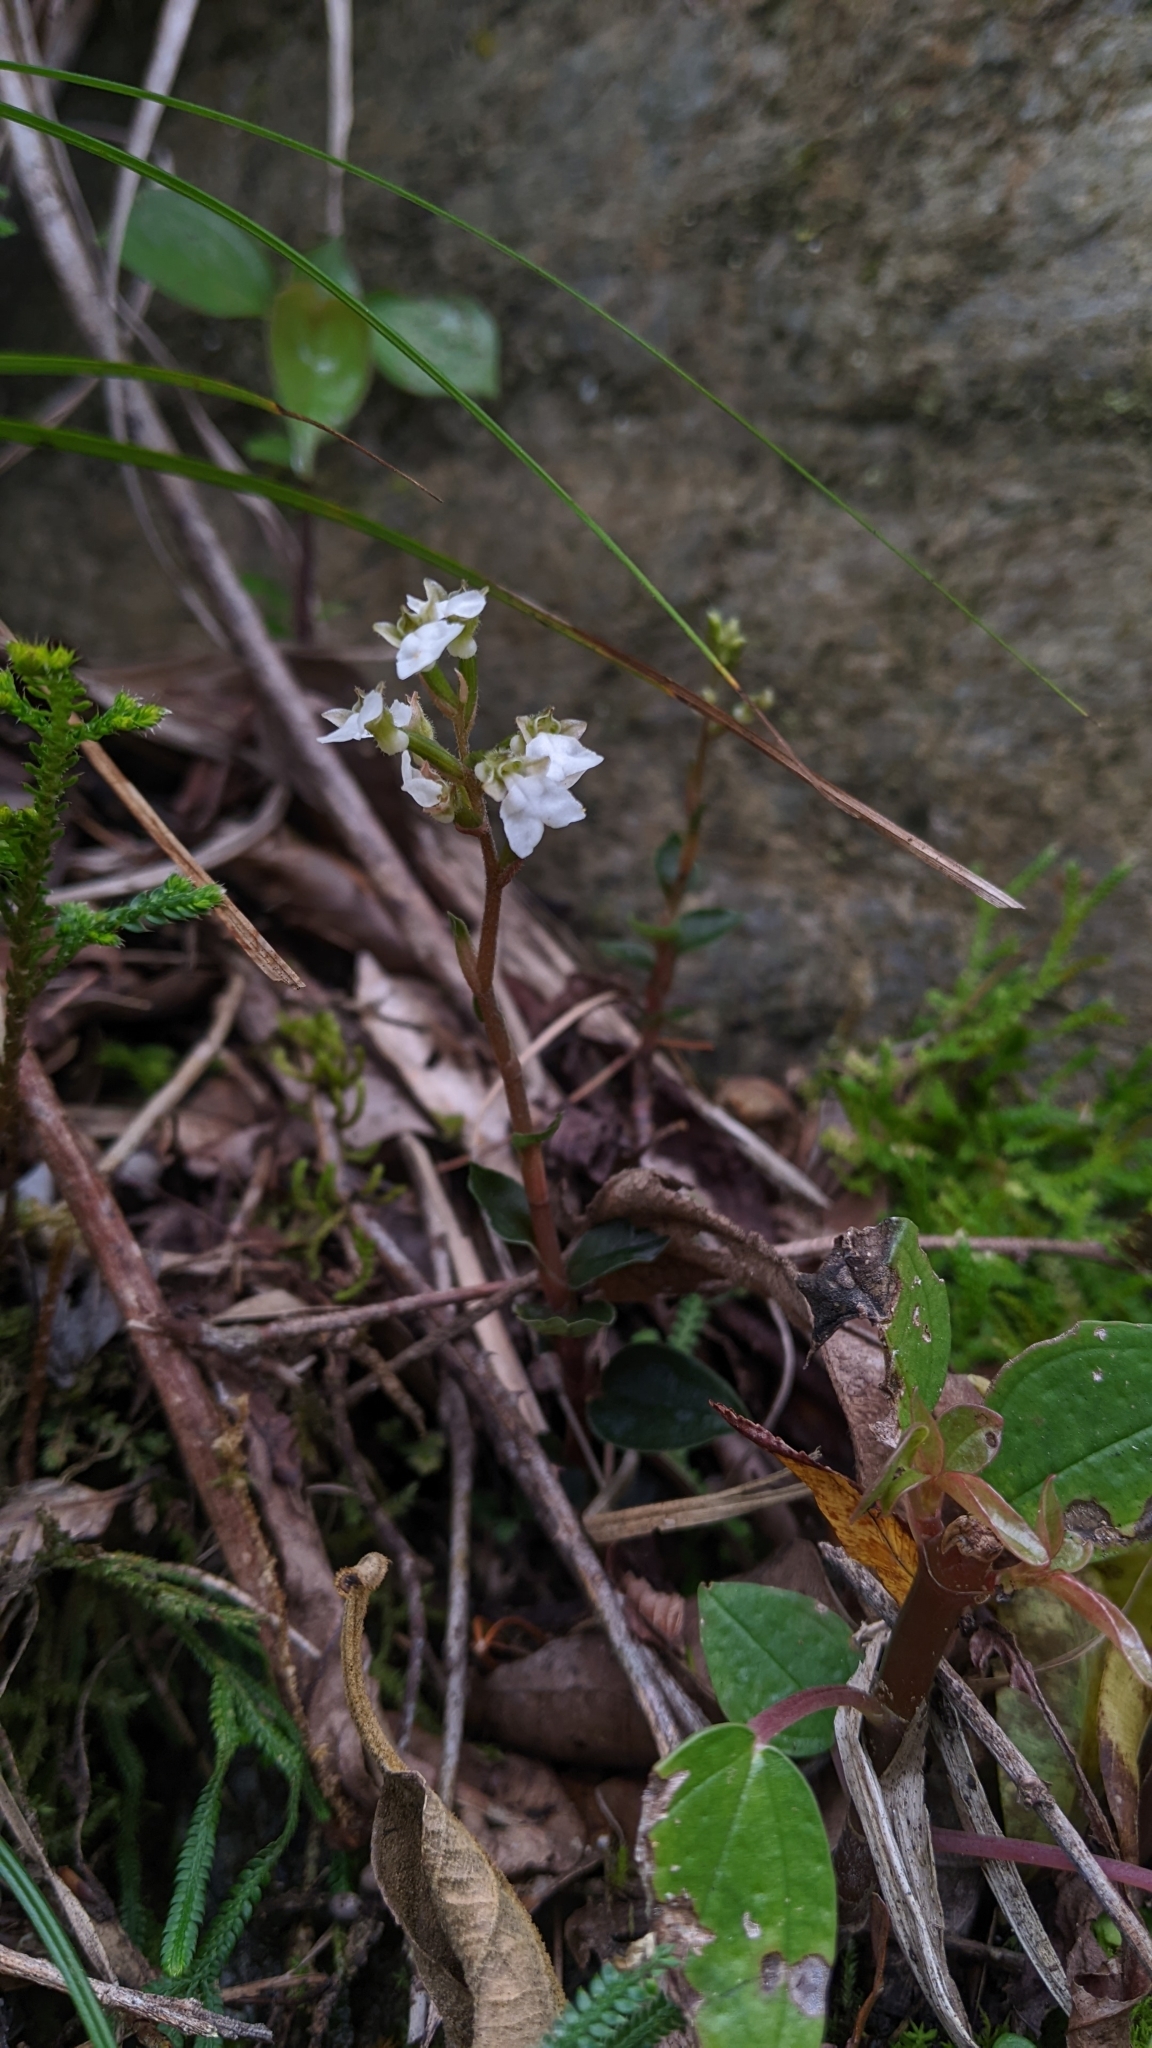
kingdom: Plantae
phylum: Tracheophyta
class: Liliopsida
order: Asparagales
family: Orchidaceae
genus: Odontochilus
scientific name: Odontochilus yakushimensis
